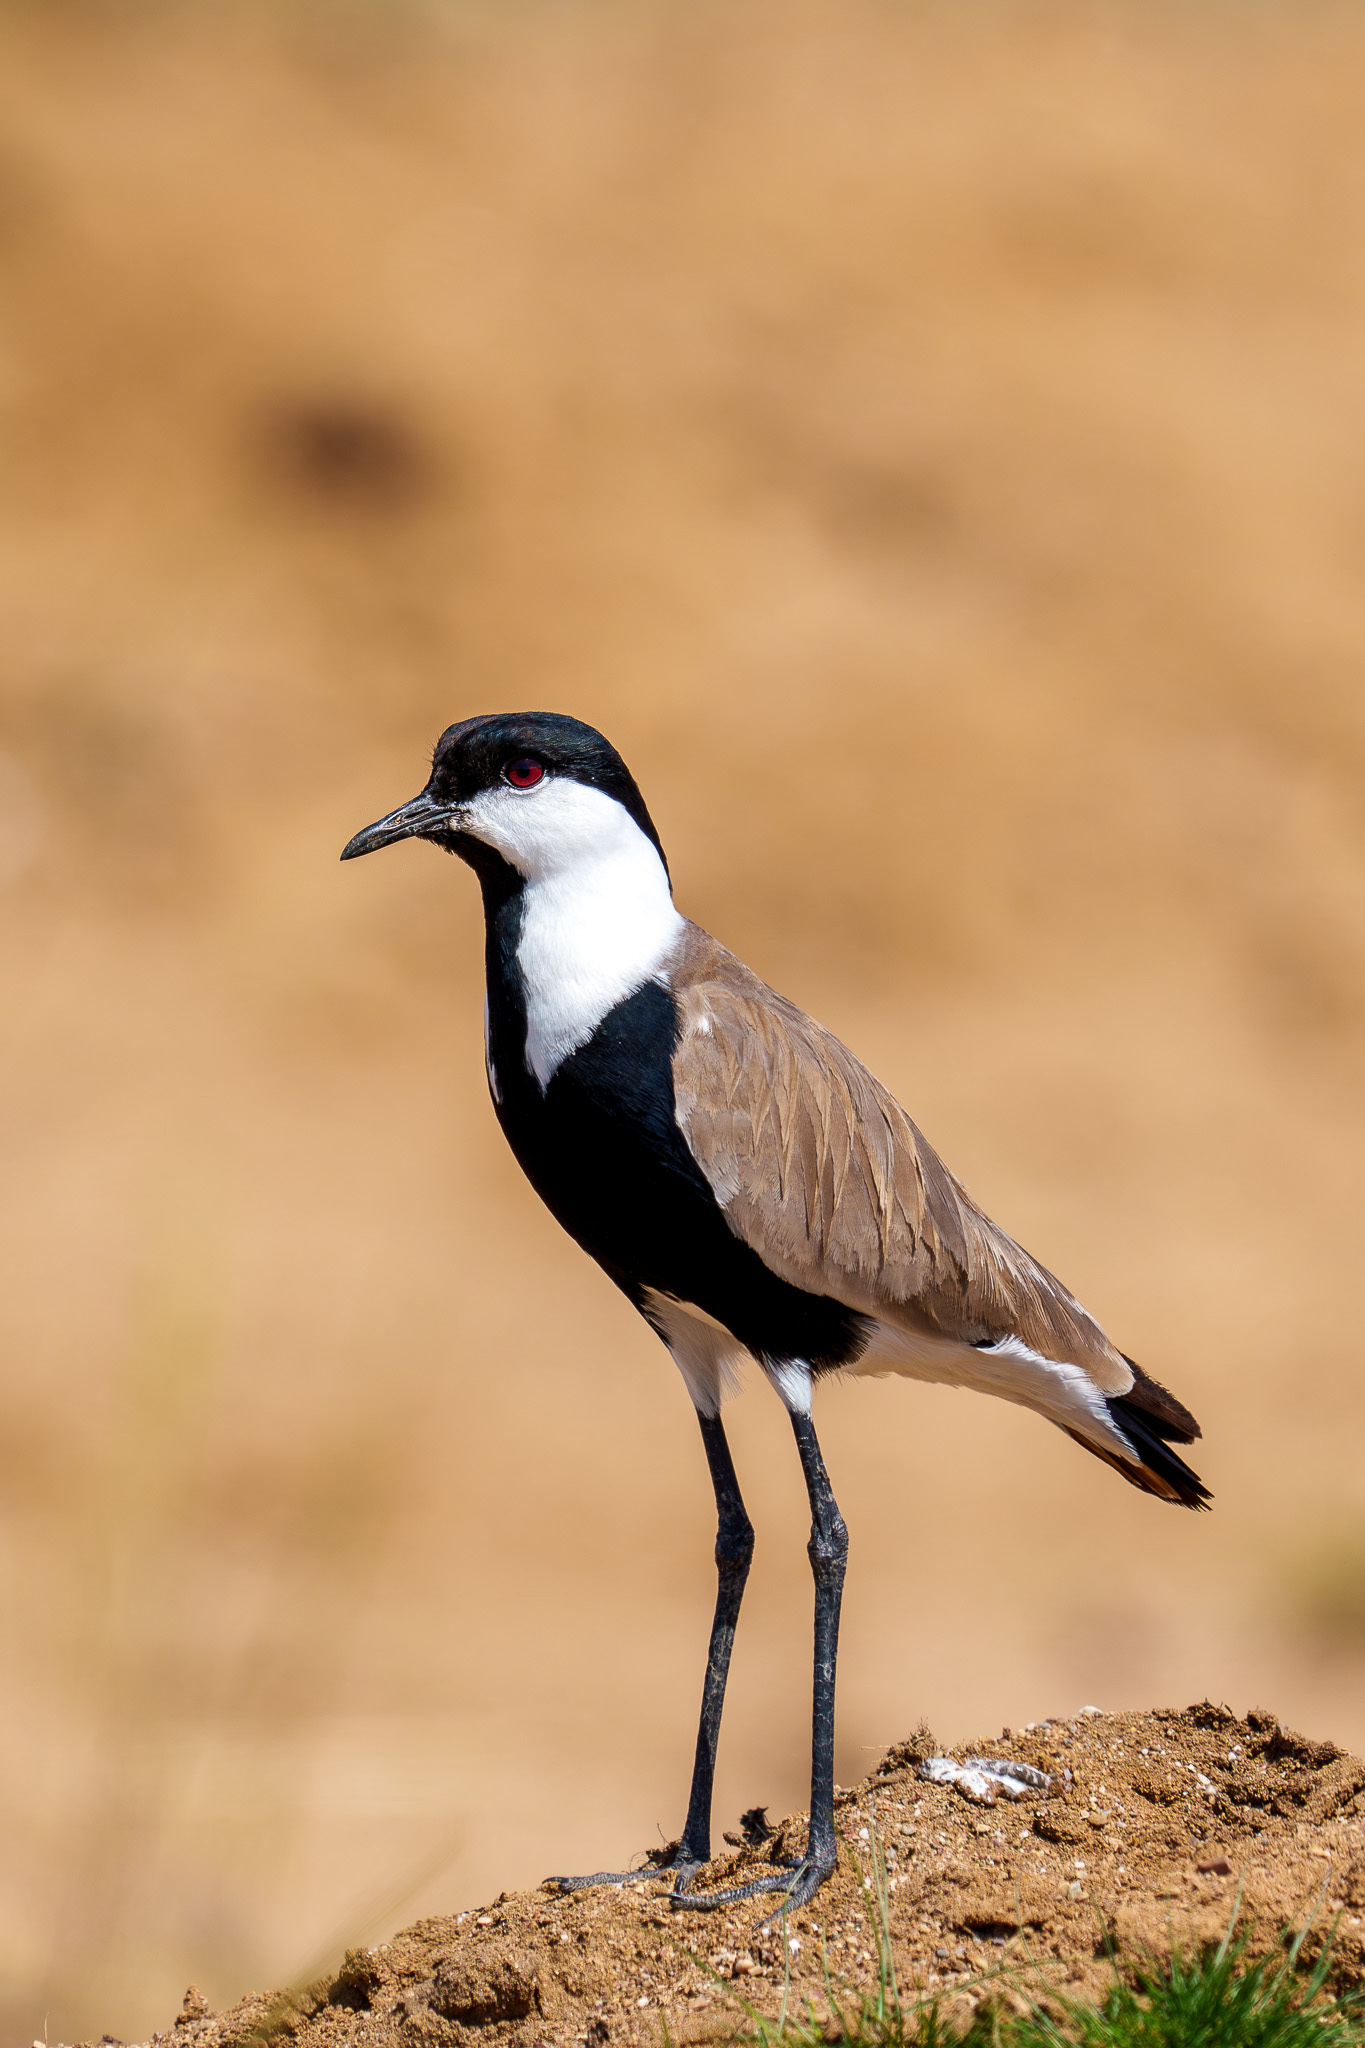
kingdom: Animalia
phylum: Chordata
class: Aves
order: Charadriiformes
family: Charadriidae
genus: Vanellus
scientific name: Vanellus spinosus
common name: Spur-winged lapwing
